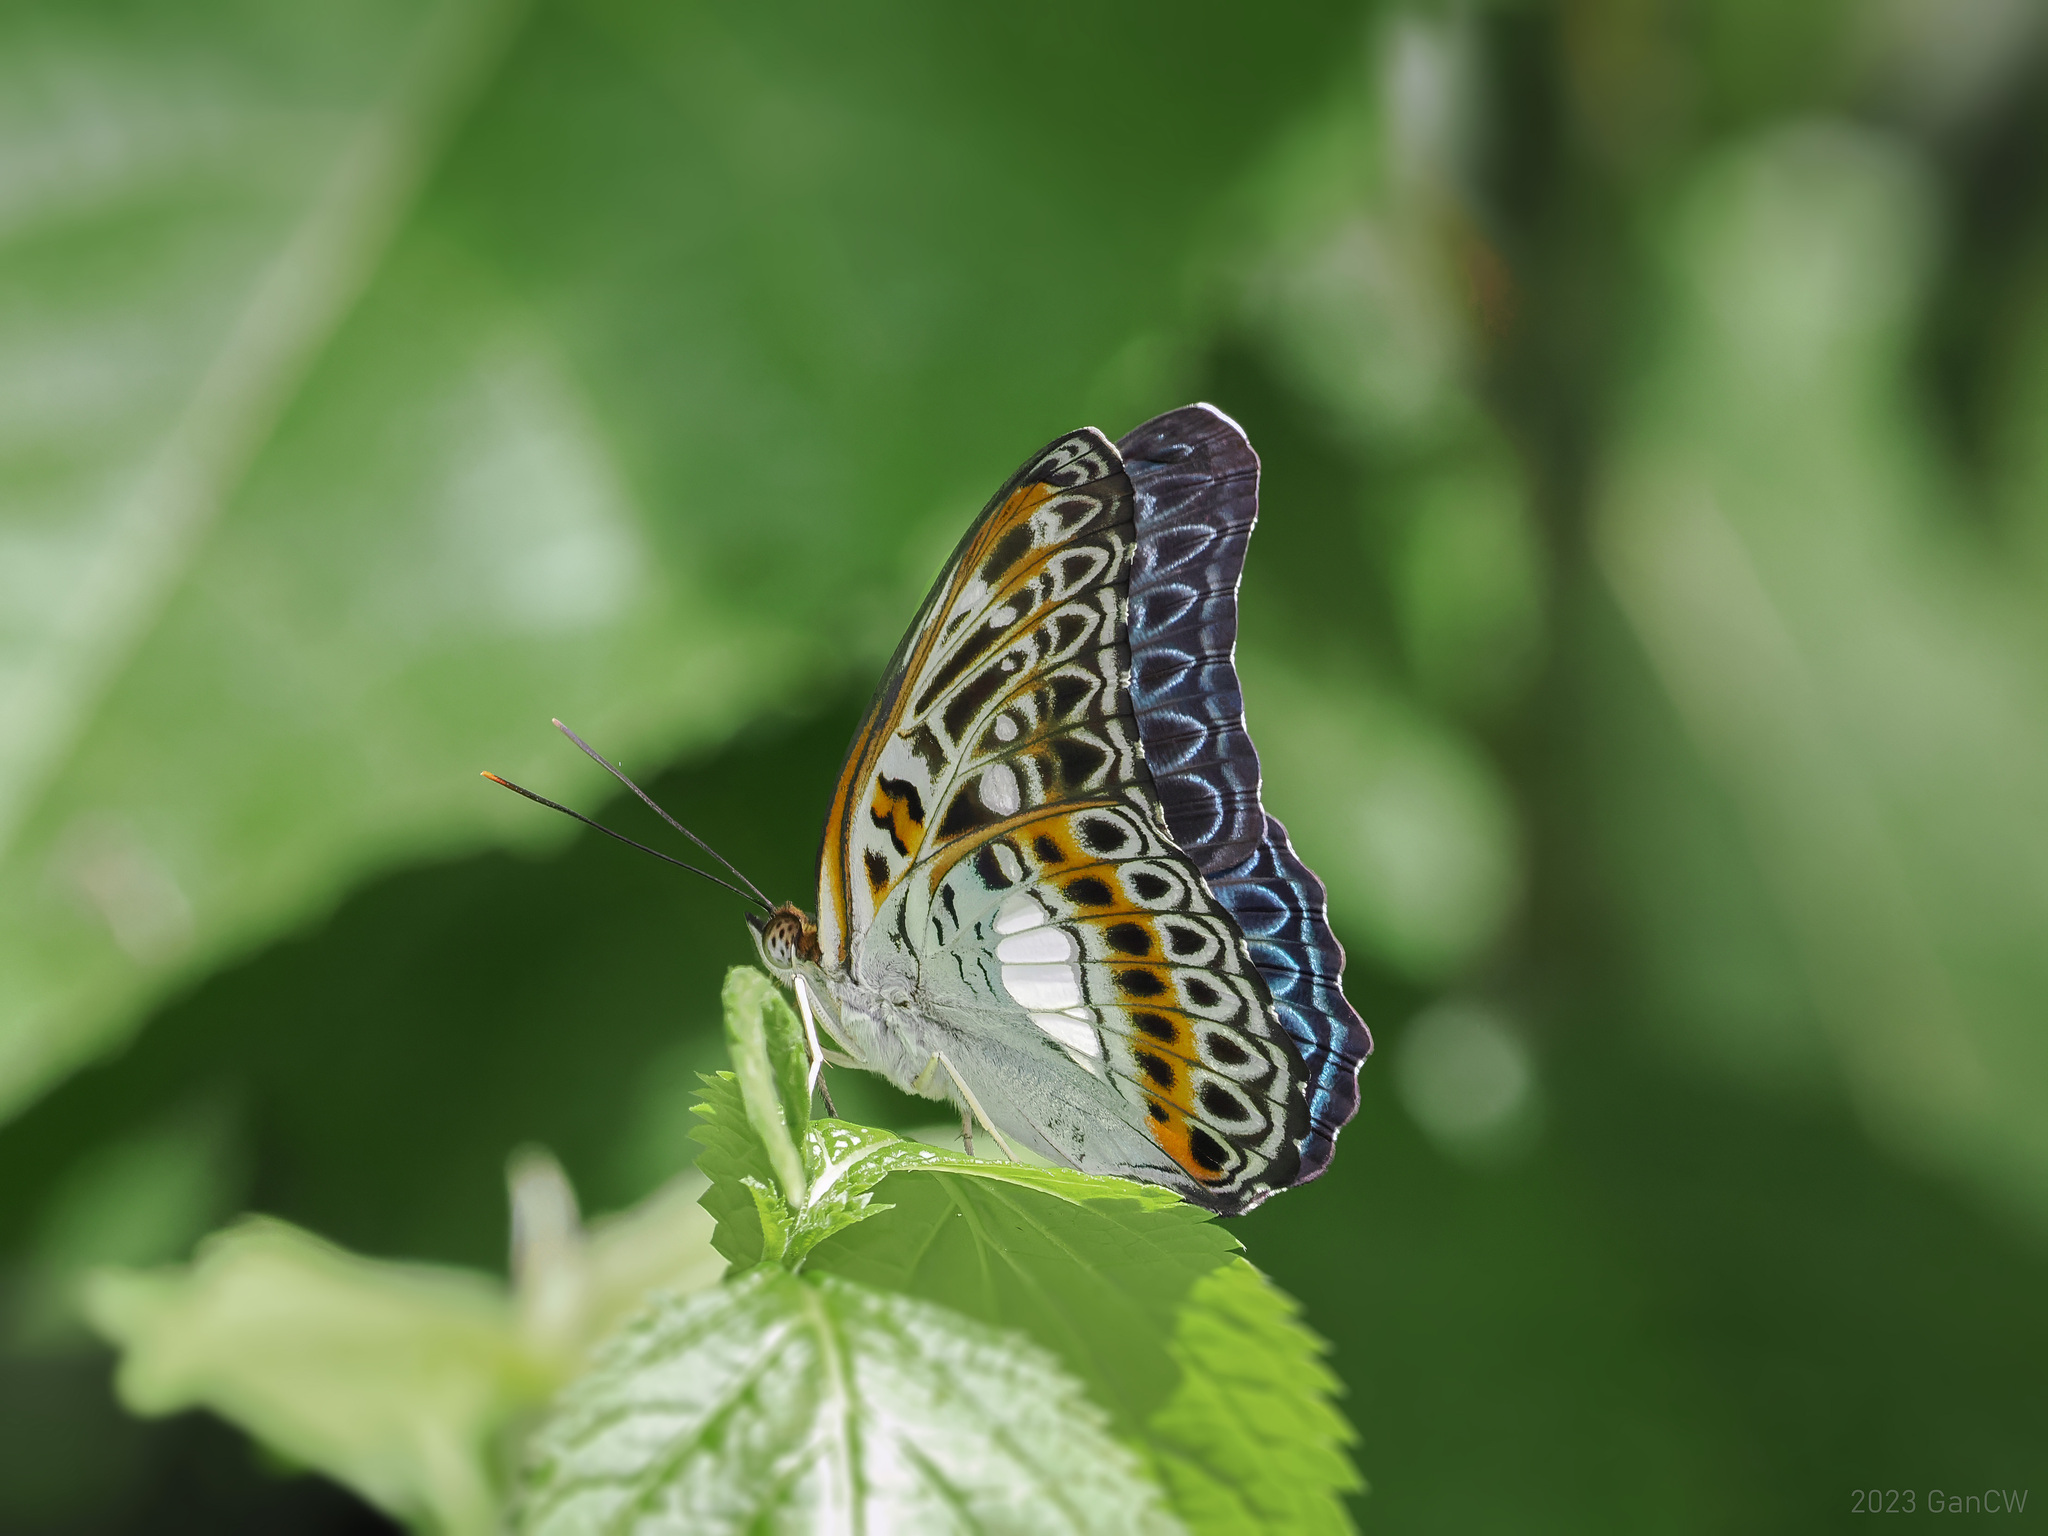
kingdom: Animalia
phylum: Arthropoda
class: Insecta
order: Lepidoptera
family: Nymphalidae
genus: Limenitis
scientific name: Limenitis
